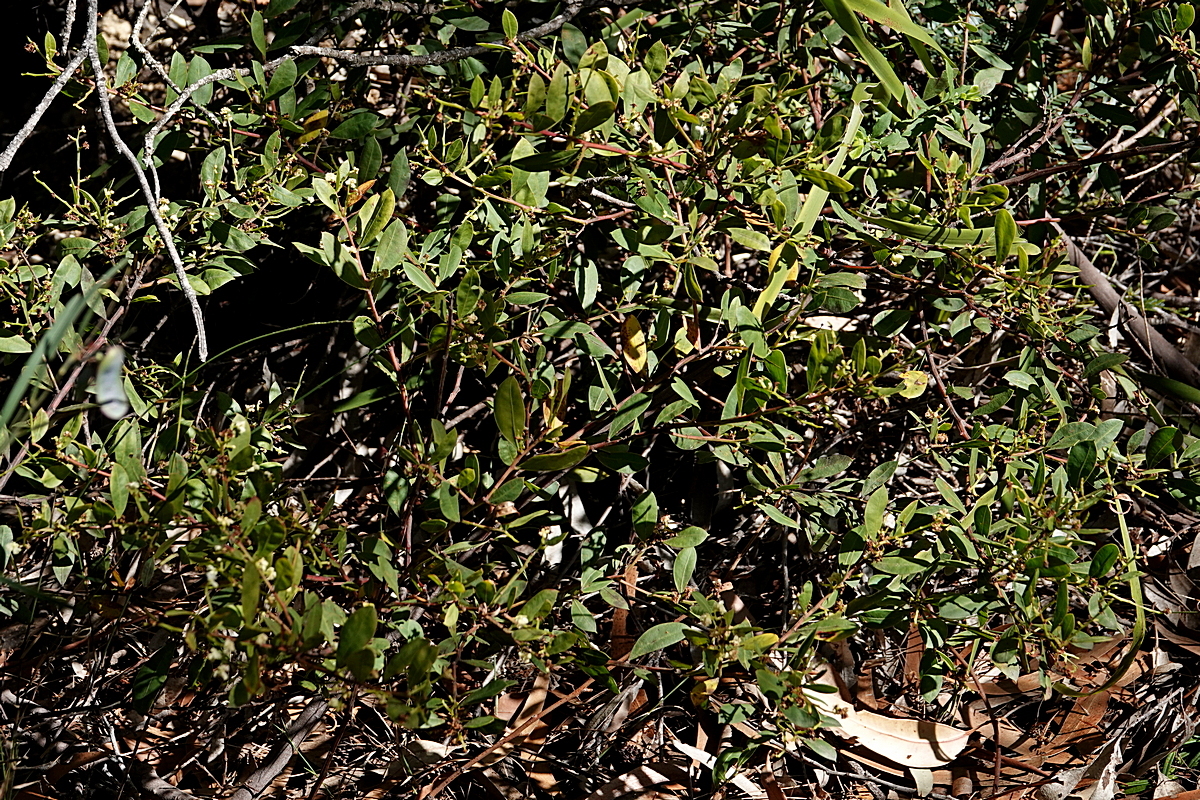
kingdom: Plantae
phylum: Tracheophyta
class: Magnoliopsida
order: Fabales
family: Fabaceae
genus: Acacia
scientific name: Acacia myrtifolia
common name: Myrtle wattle
